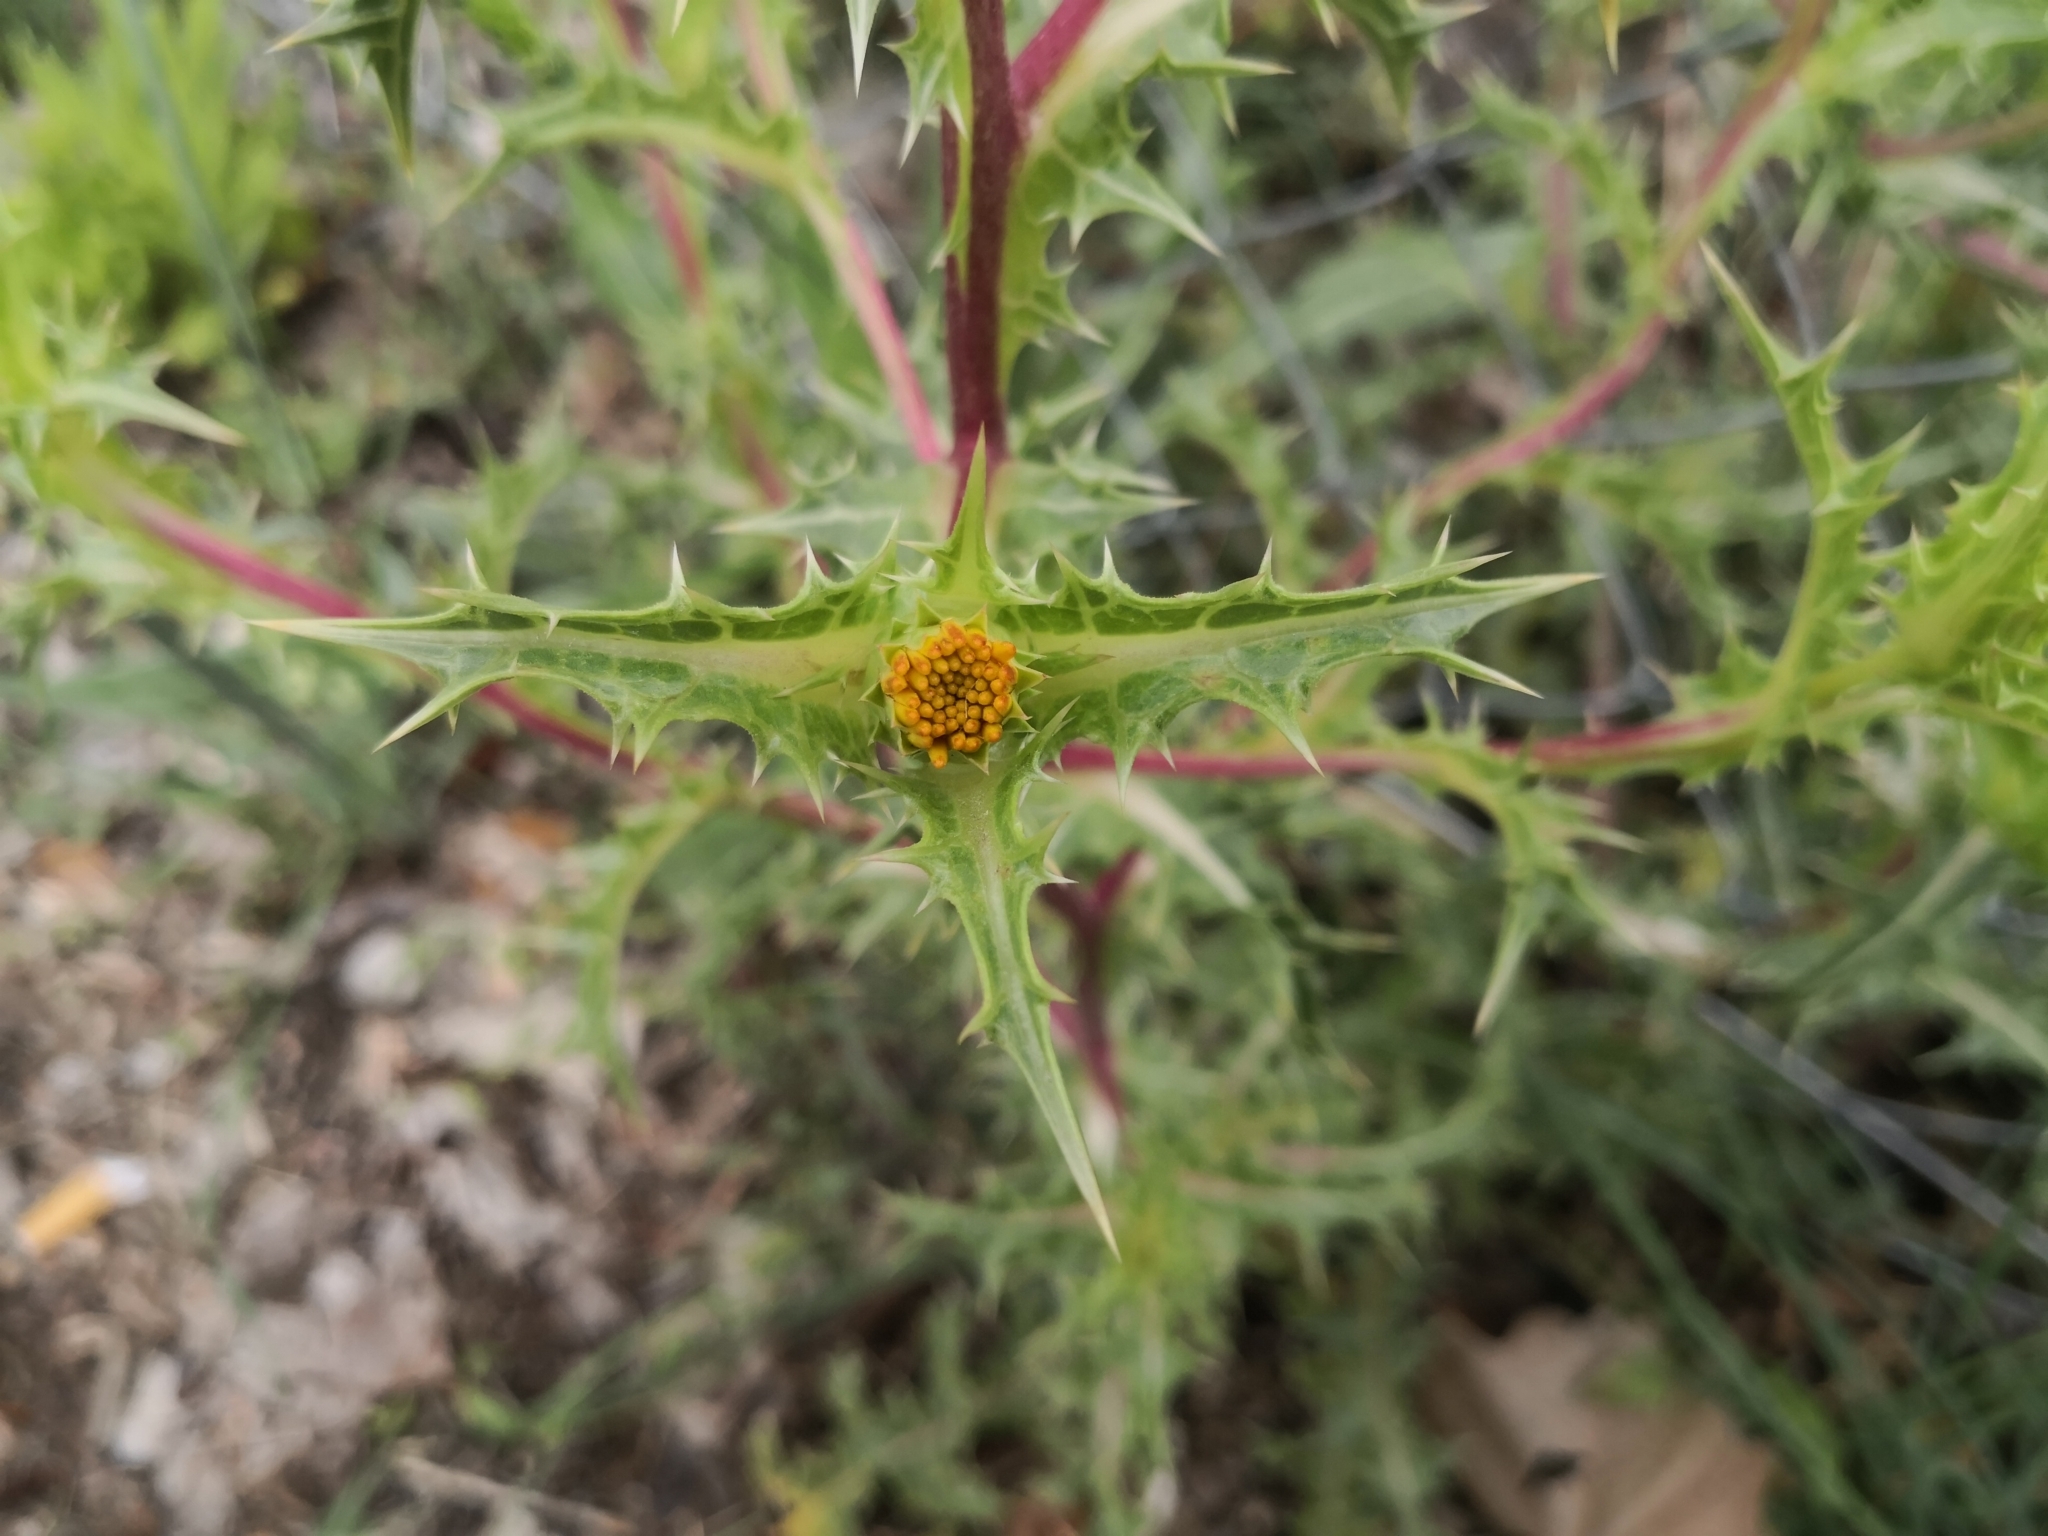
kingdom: Plantae
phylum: Tracheophyta
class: Magnoliopsida
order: Asterales
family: Asteraceae
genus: Scolymus
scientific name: Scolymus hispanicus
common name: Golden thistle
